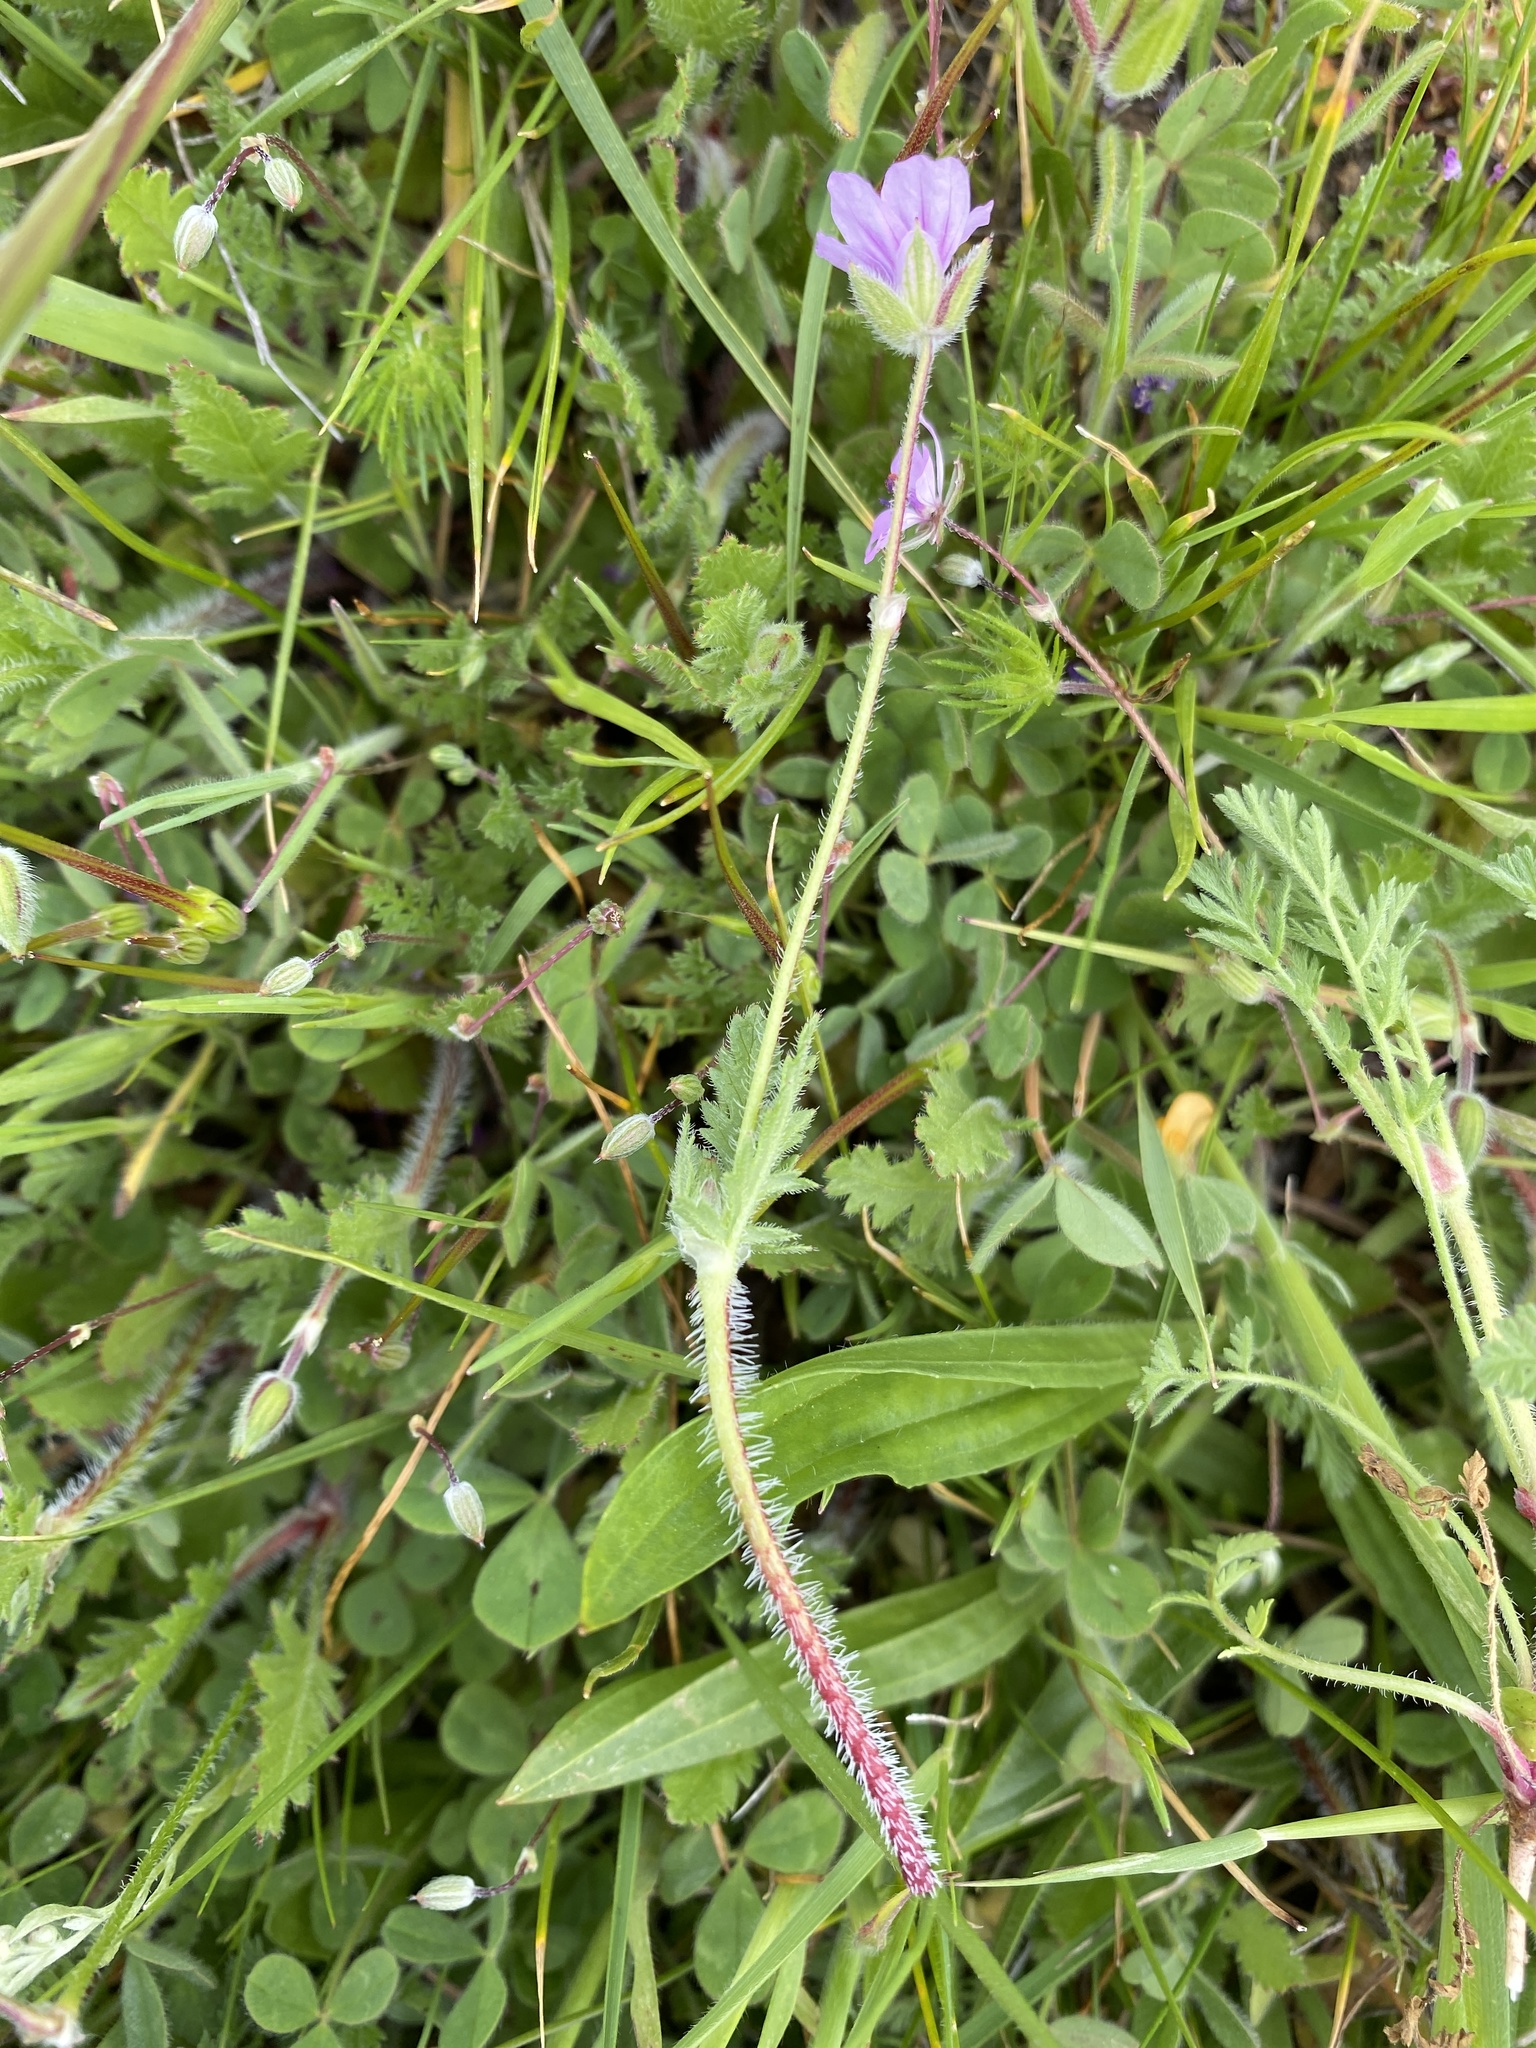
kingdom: Plantae
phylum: Tracheophyta
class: Magnoliopsida
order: Geraniales
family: Geraniaceae
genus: Erodium
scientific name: Erodium botrys
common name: Mediterranean stork's-bill
